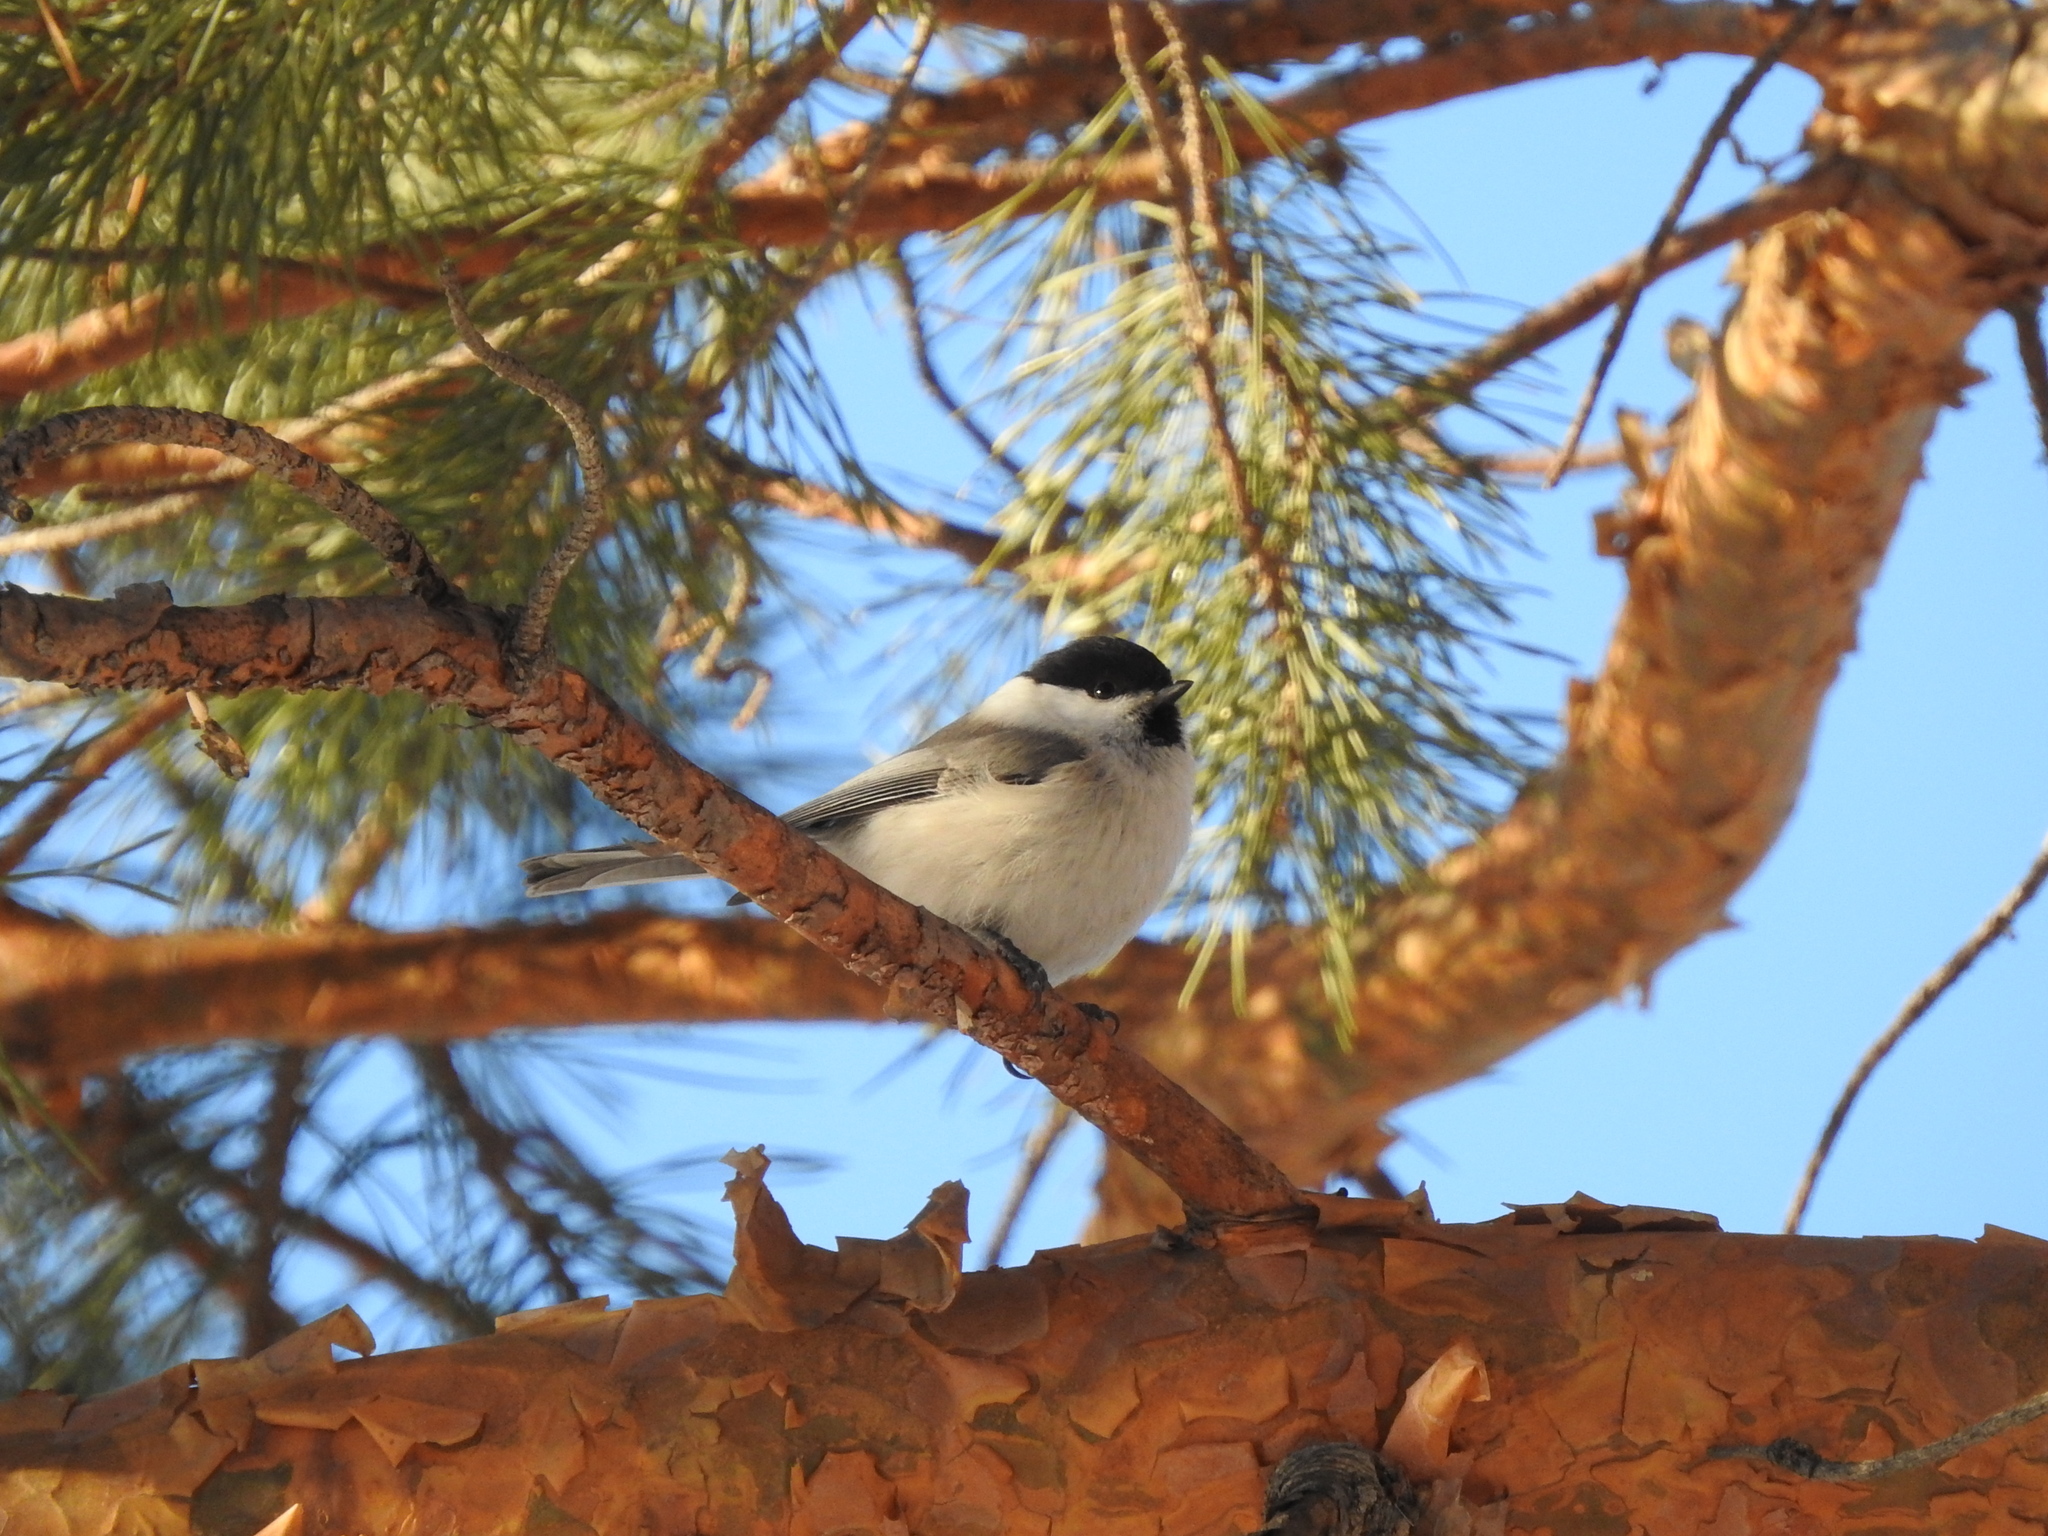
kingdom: Animalia
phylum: Chordata
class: Aves
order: Passeriformes
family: Paridae
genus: Poecile
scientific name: Poecile montanus
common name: Willow tit
